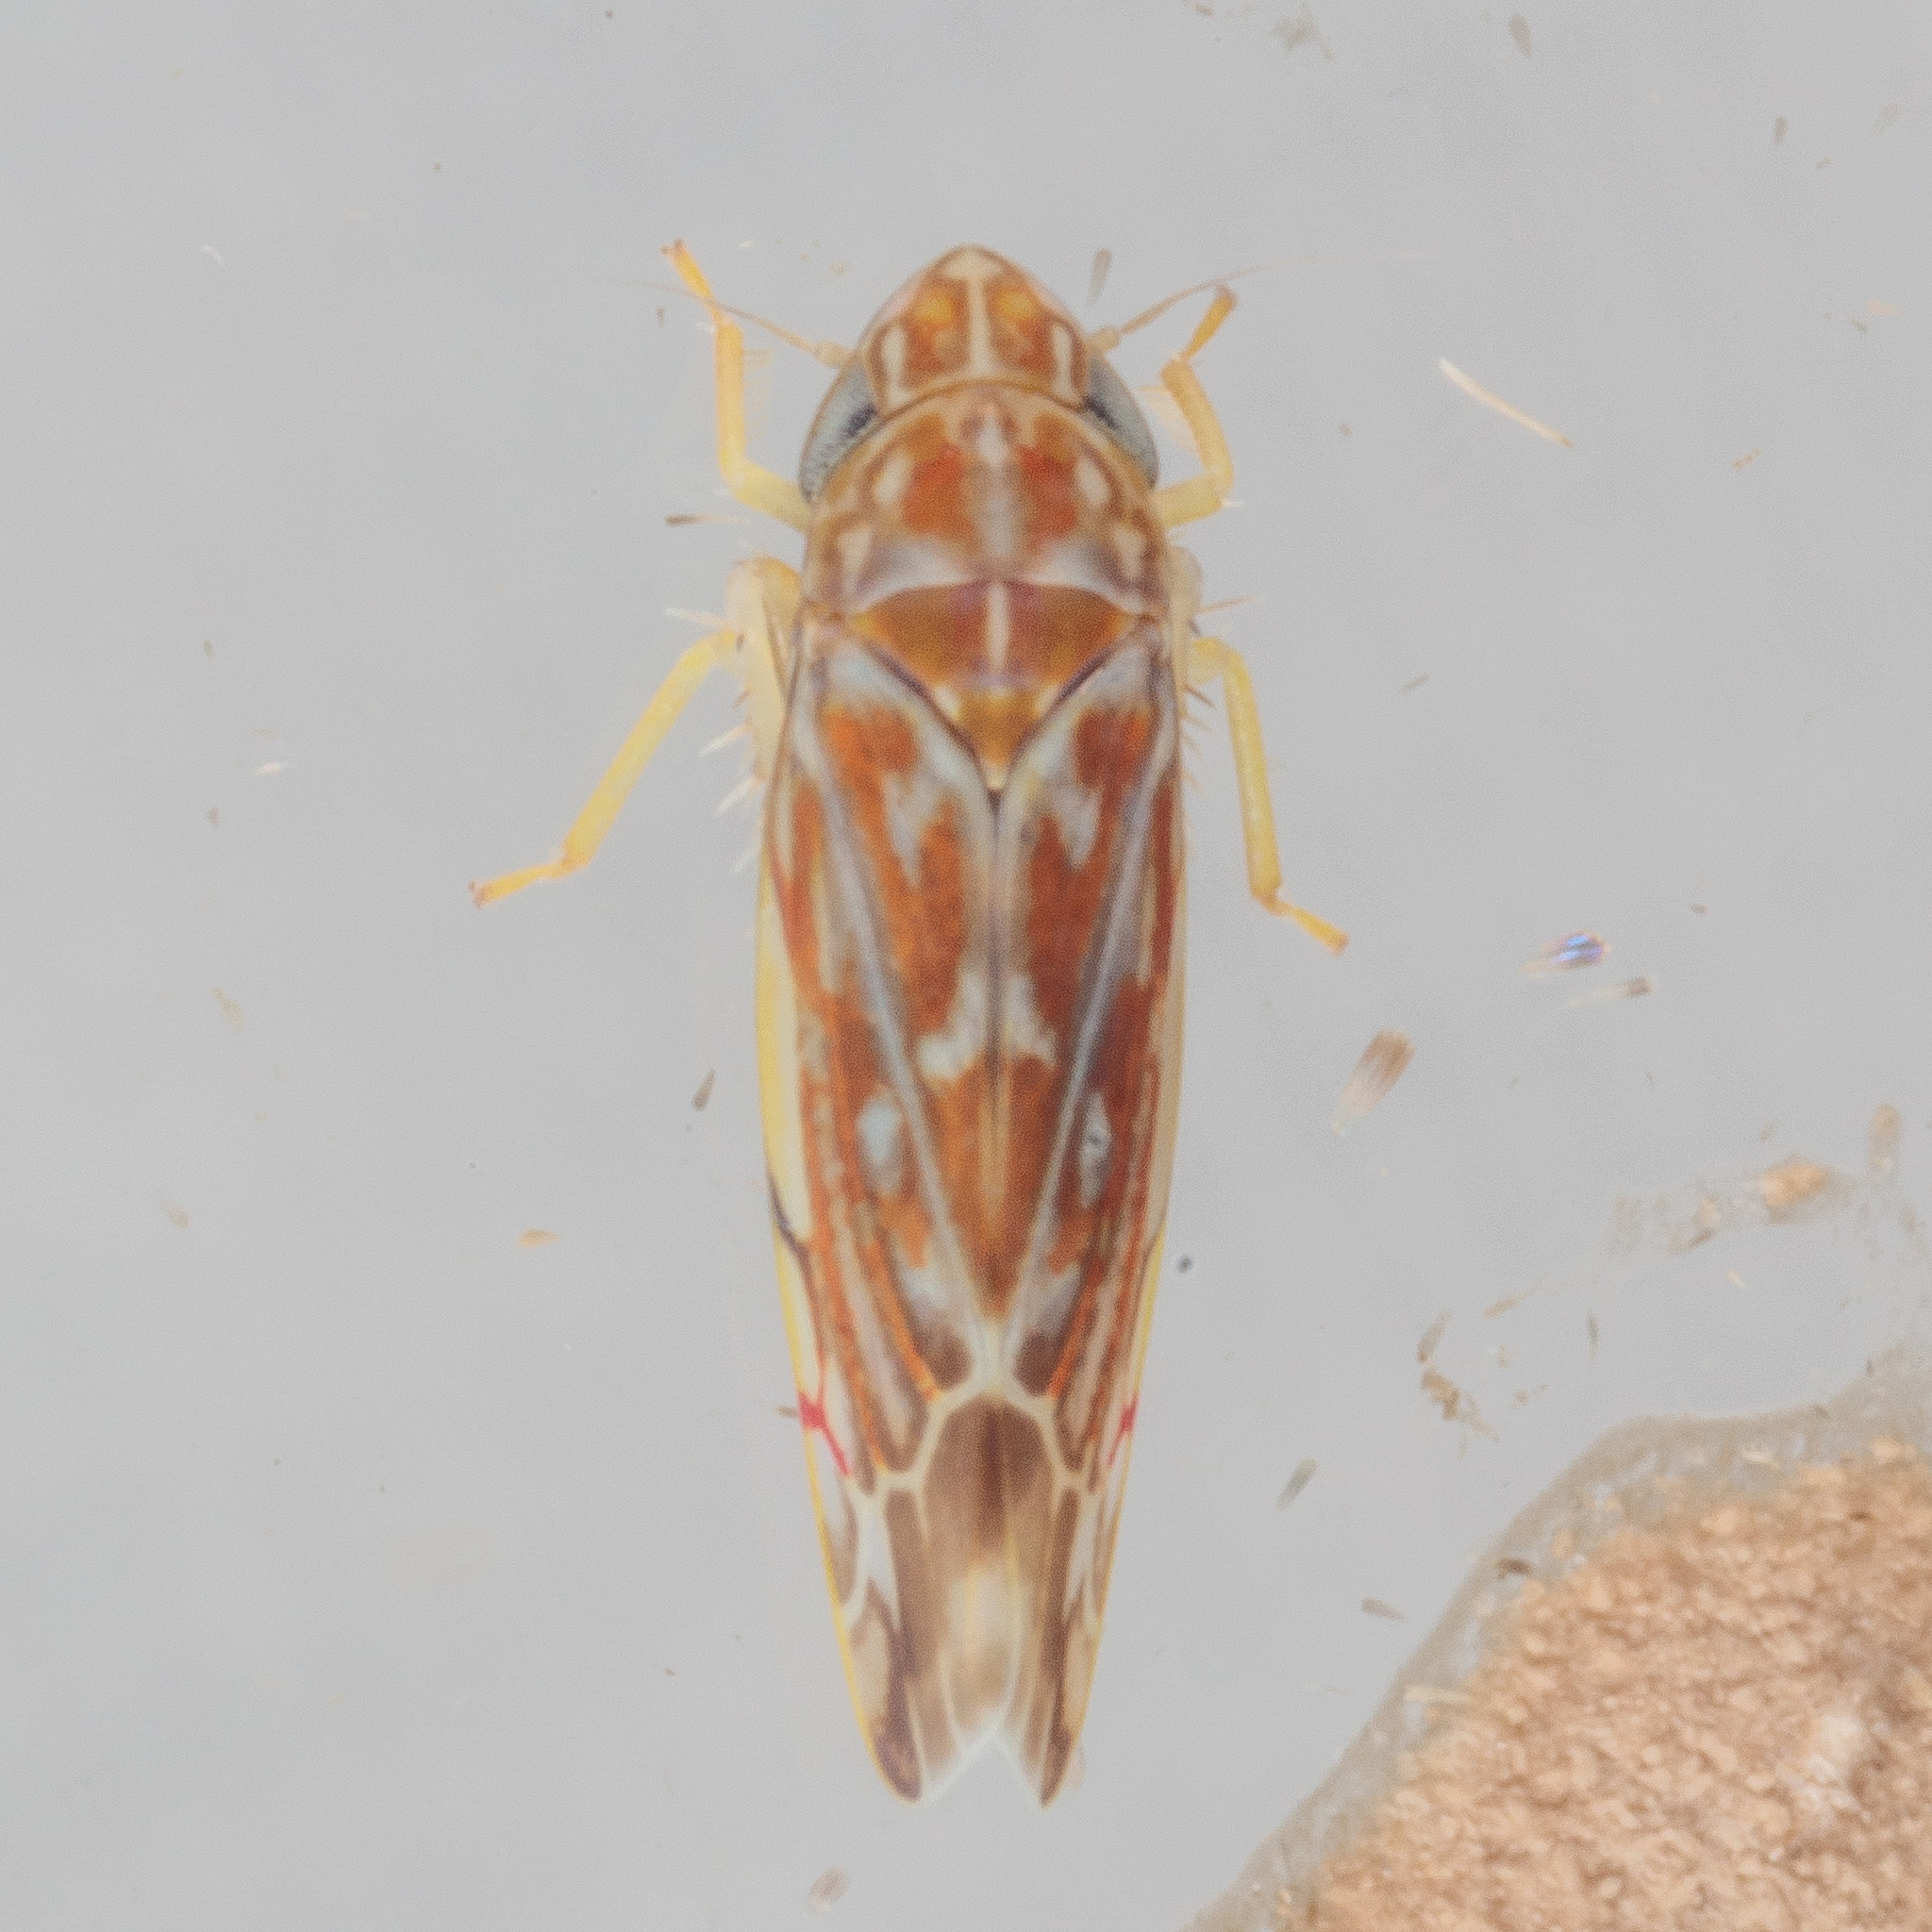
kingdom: Animalia
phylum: Arthropoda
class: Insecta
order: Hemiptera
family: Cicadellidae
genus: Erasmoneura
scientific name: Erasmoneura vulnerata
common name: The wounded leafhopper
